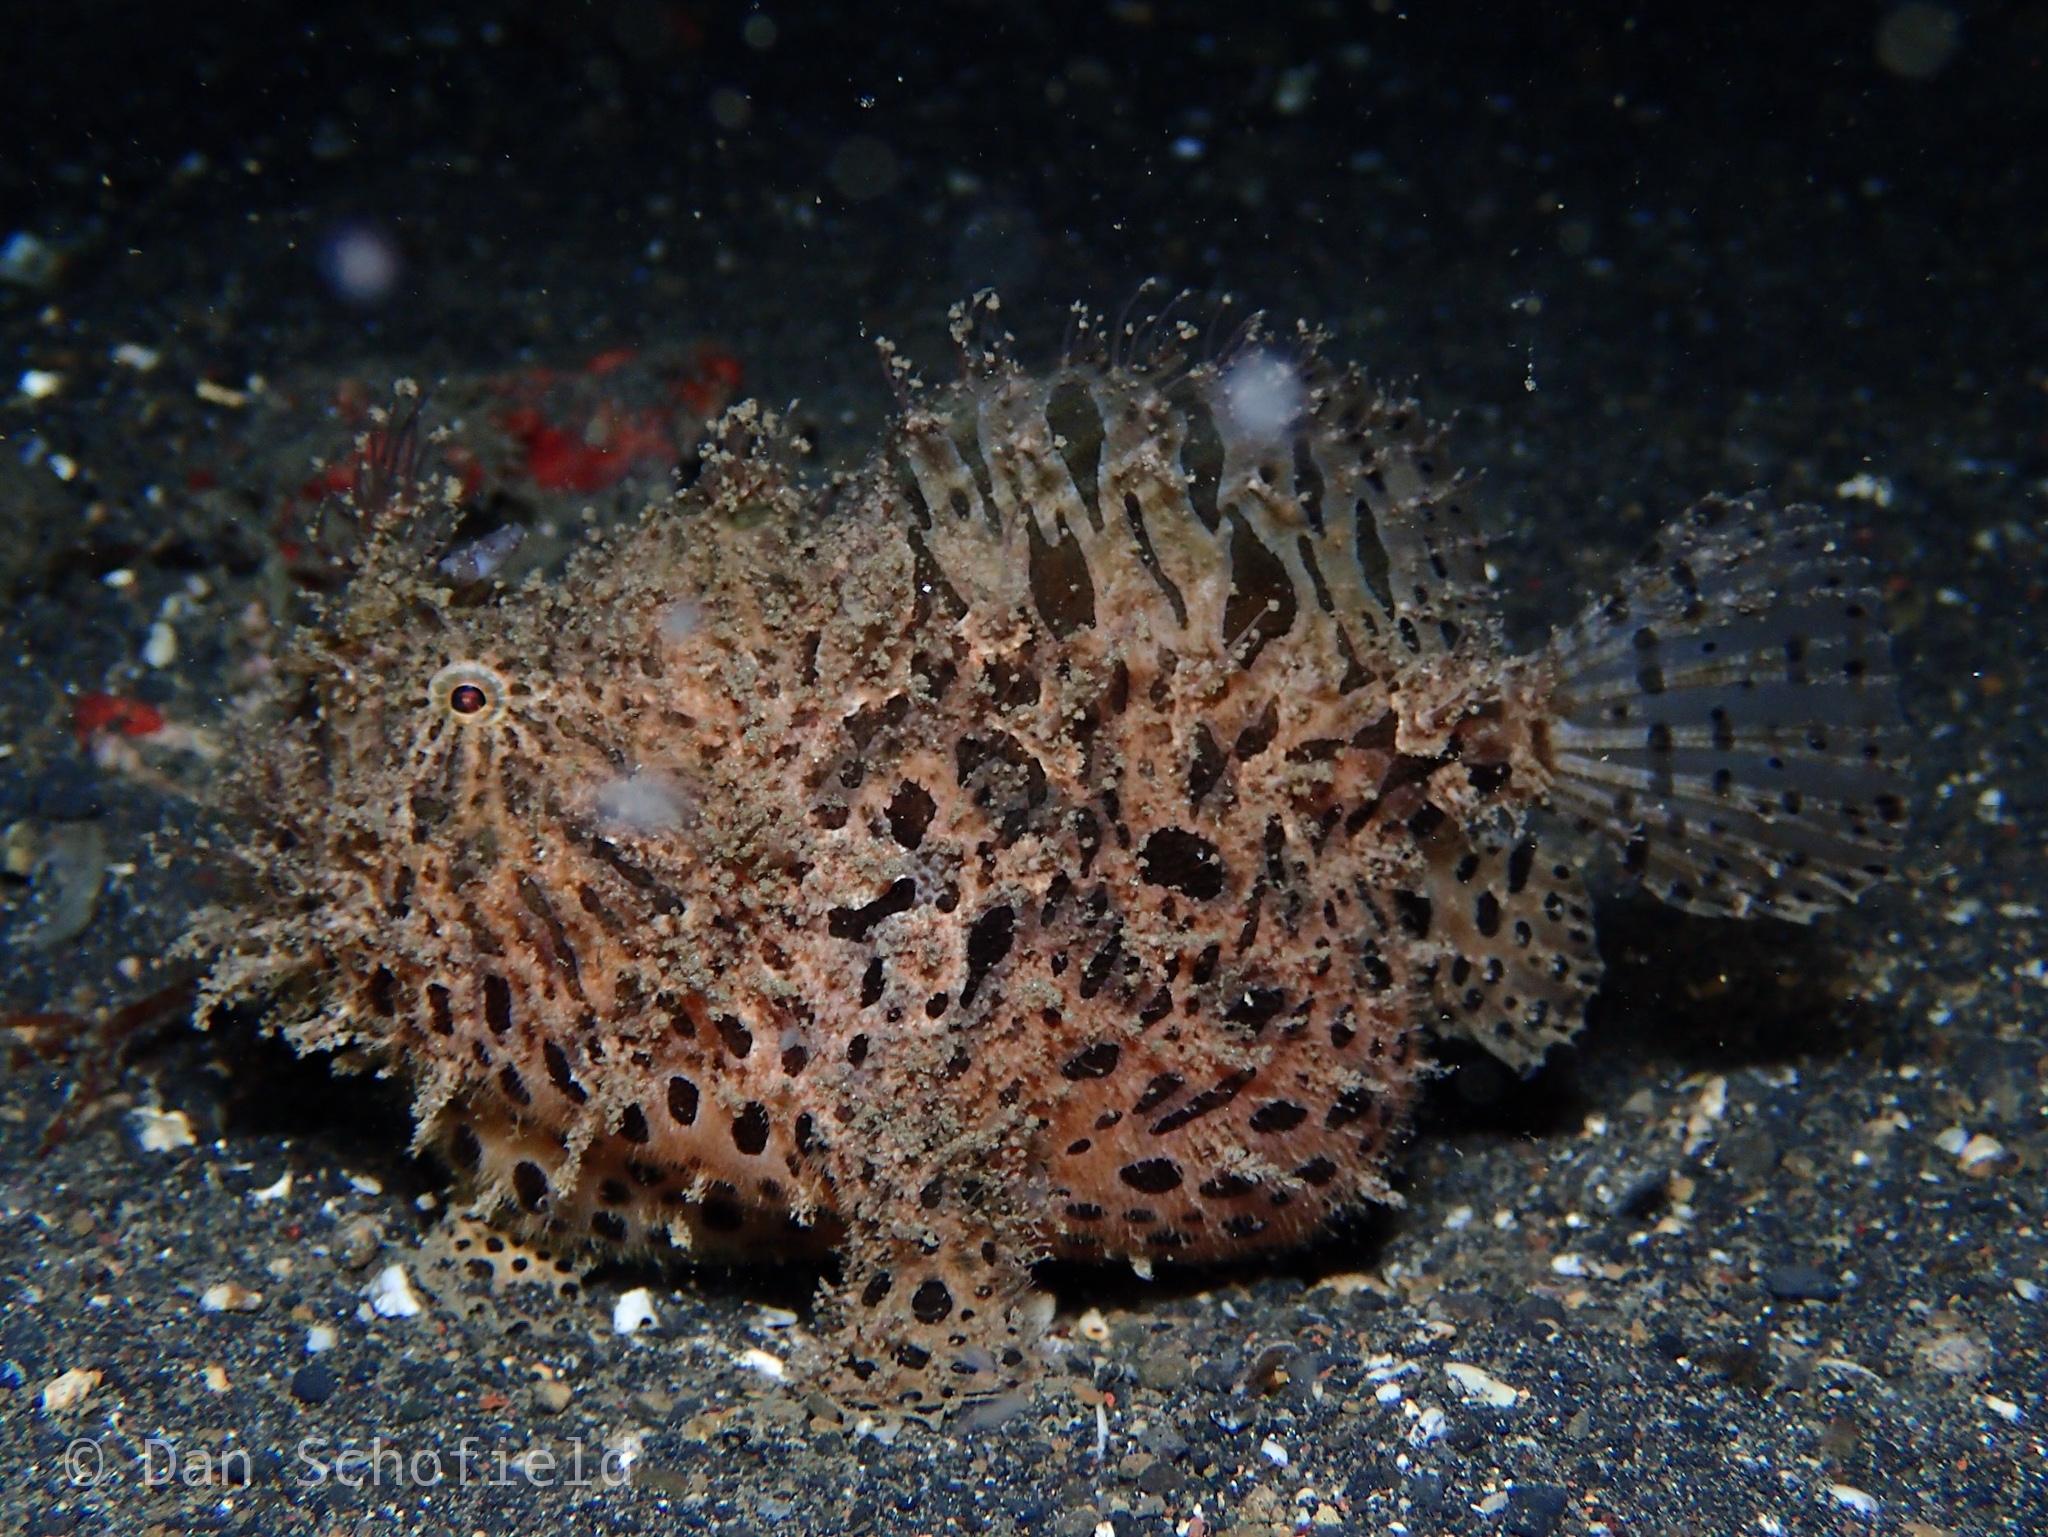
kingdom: Animalia
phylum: Chordata
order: Lophiiformes
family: Antennariidae
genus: Antennarius
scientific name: Antennarius striatus
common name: Striated frogfish
